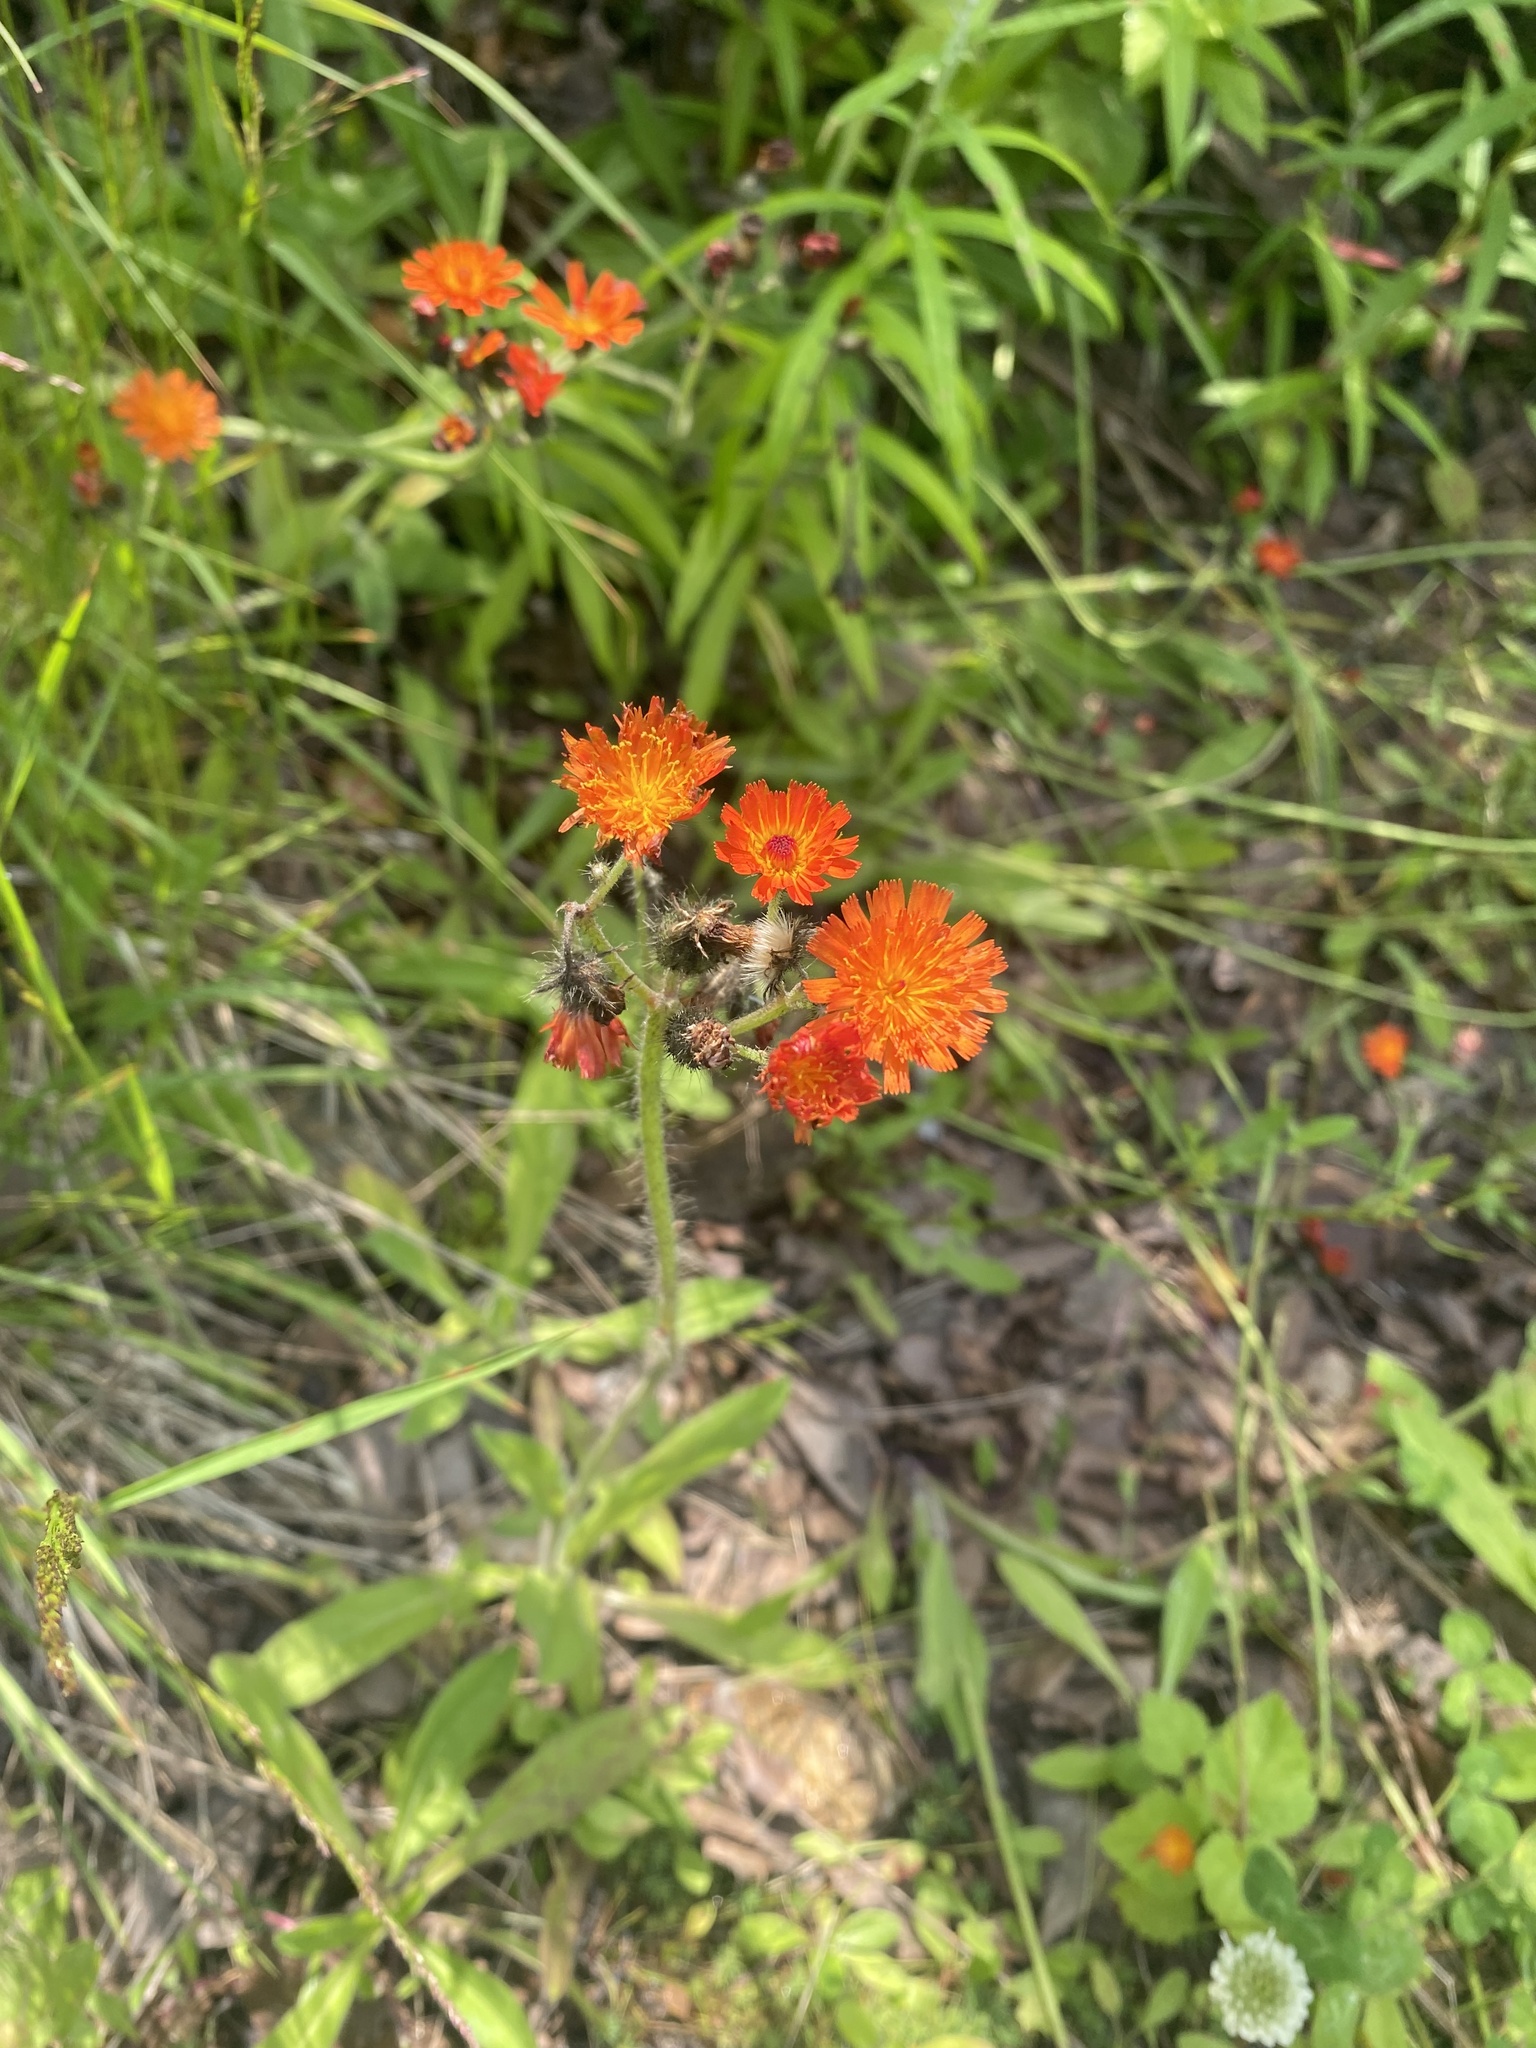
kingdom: Plantae
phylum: Tracheophyta
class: Magnoliopsida
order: Asterales
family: Asteraceae
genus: Pilosella
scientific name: Pilosella aurantiaca
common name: Fox-and-cubs
